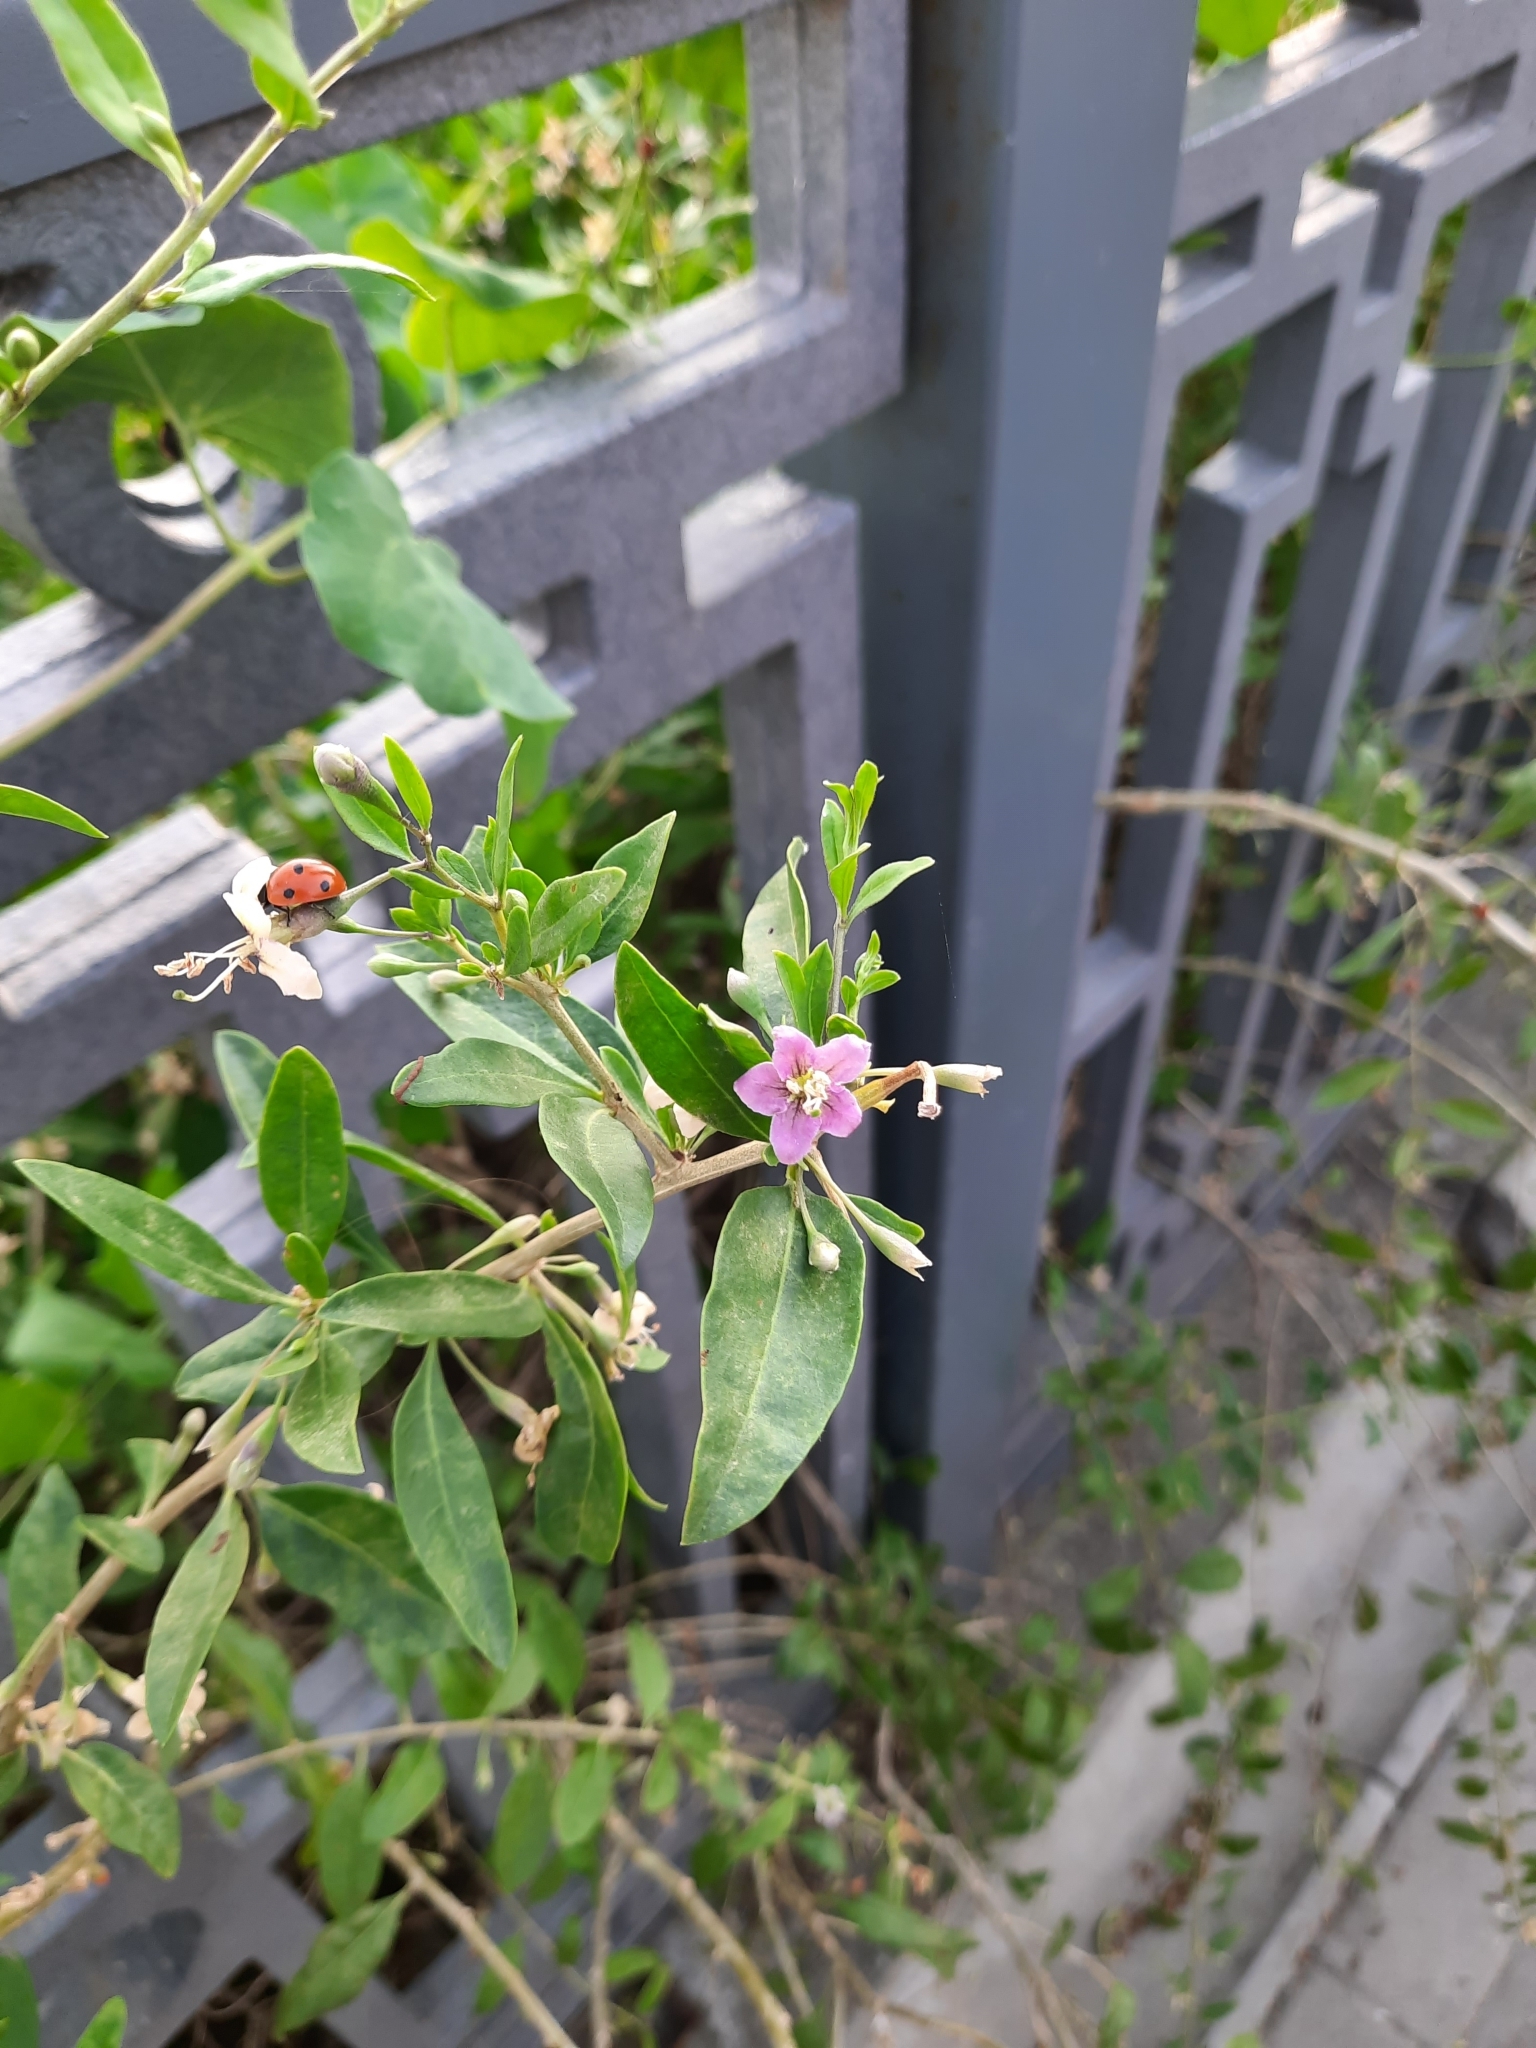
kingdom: Plantae
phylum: Tracheophyta
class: Magnoliopsida
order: Solanales
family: Solanaceae
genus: Lycium
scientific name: Lycium barbarum
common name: Duke of argyll's teaplant
